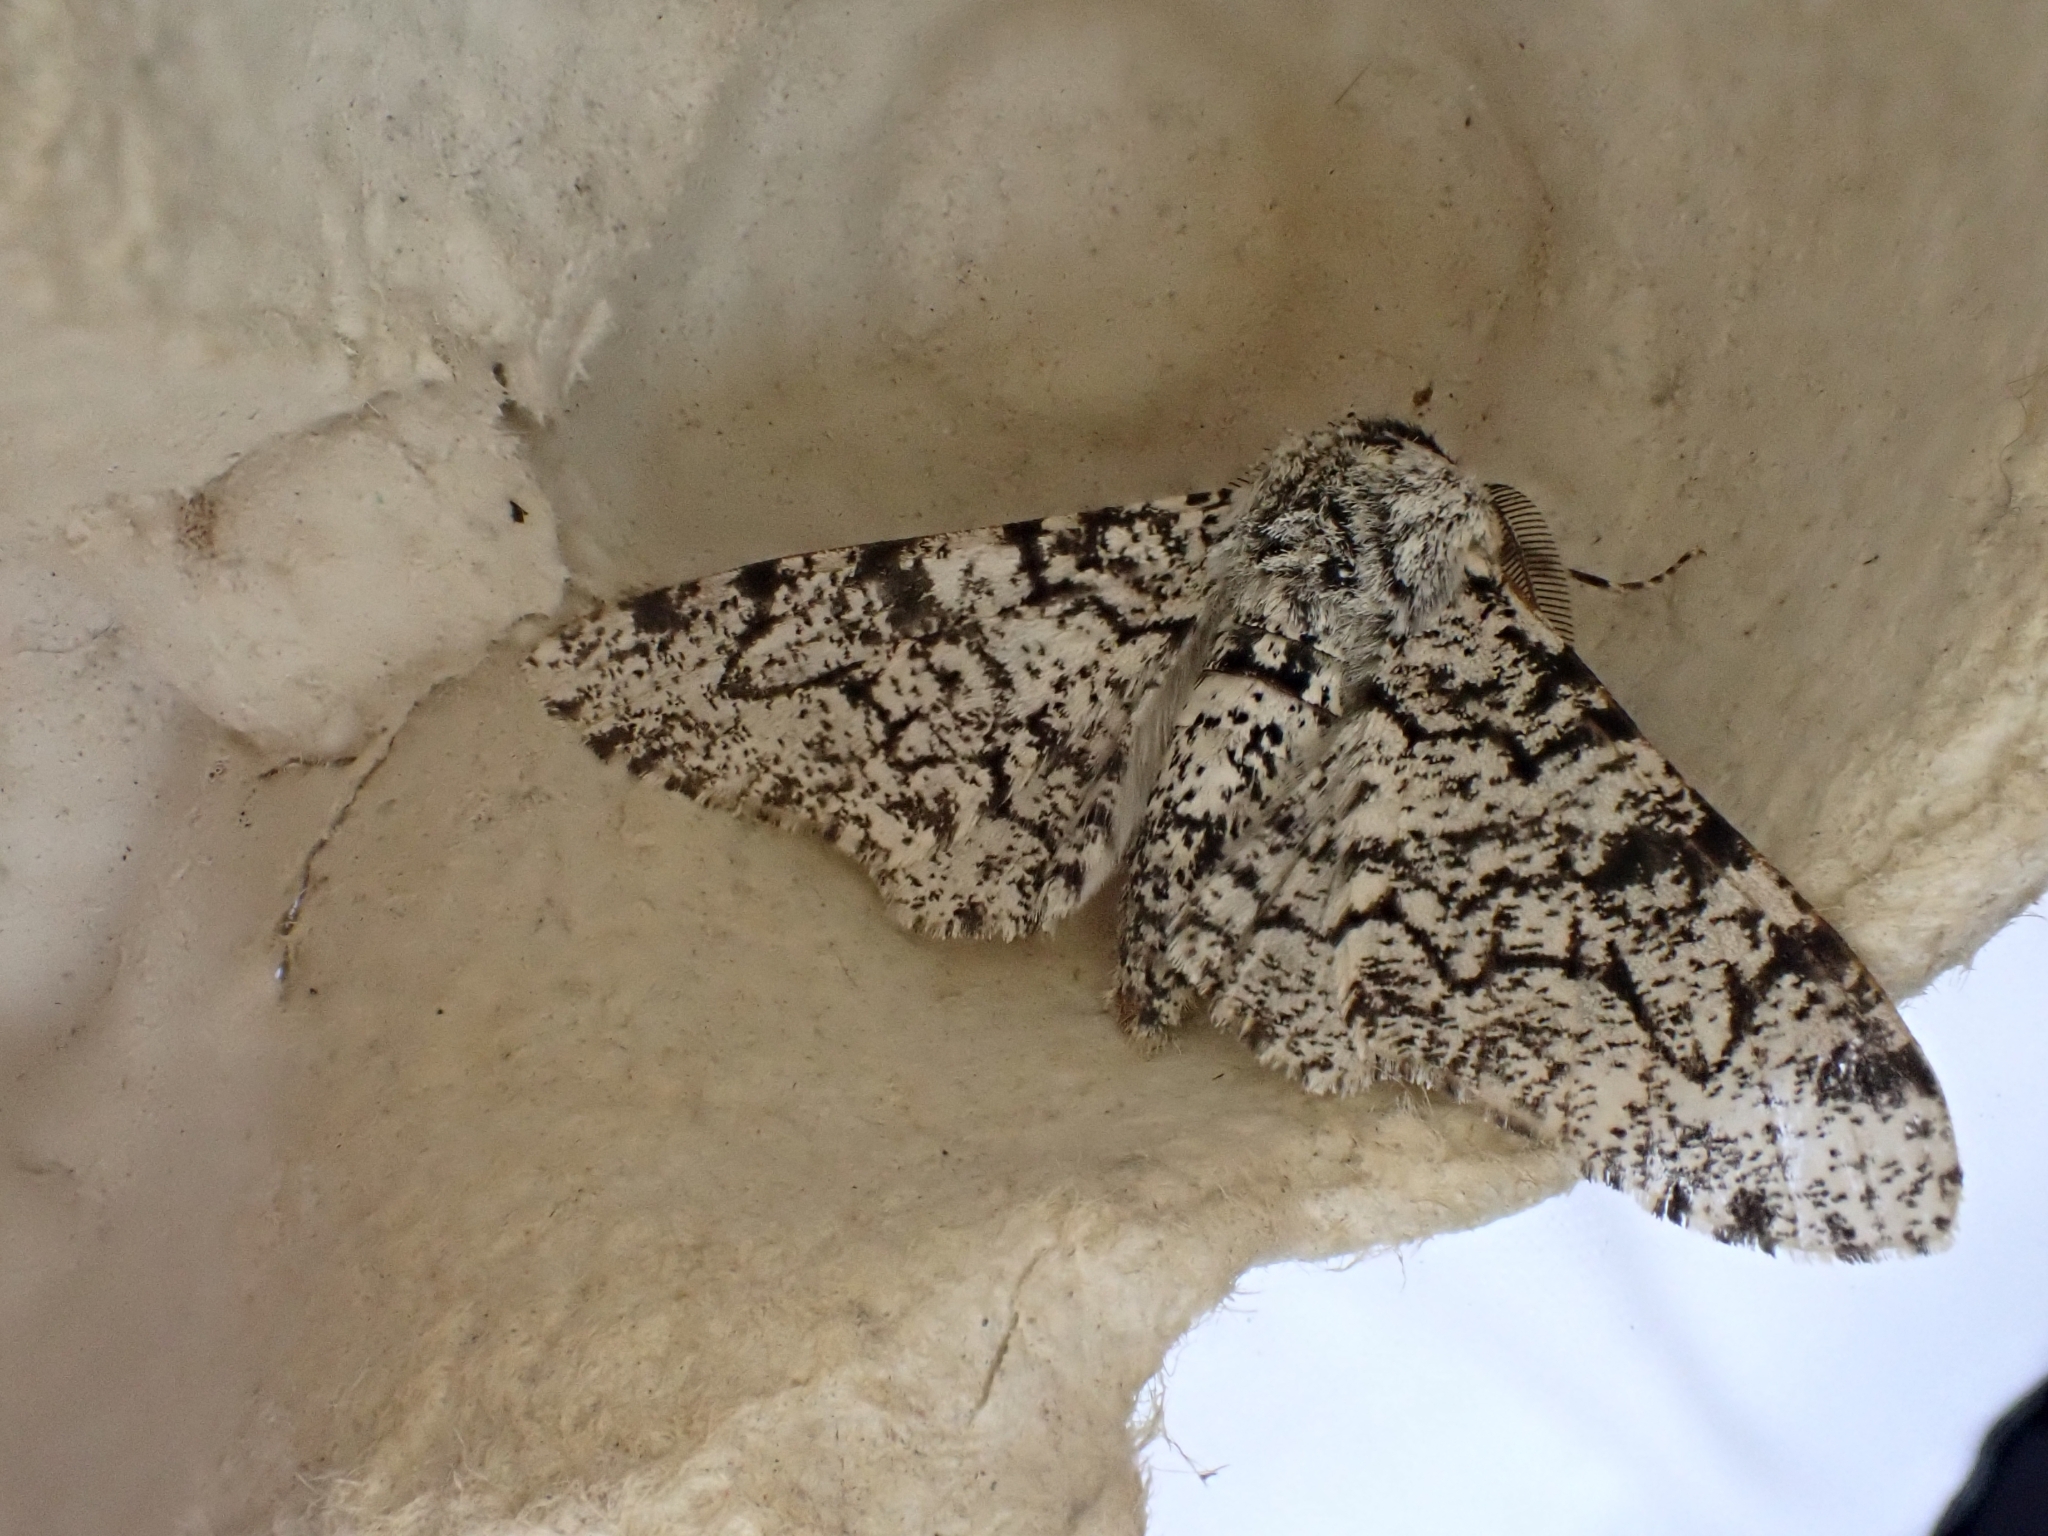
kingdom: Animalia
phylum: Arthropoda
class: Insecta
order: Lepidoptera
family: Geometridae
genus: Biston
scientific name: Biston betularia
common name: Peppered moth
